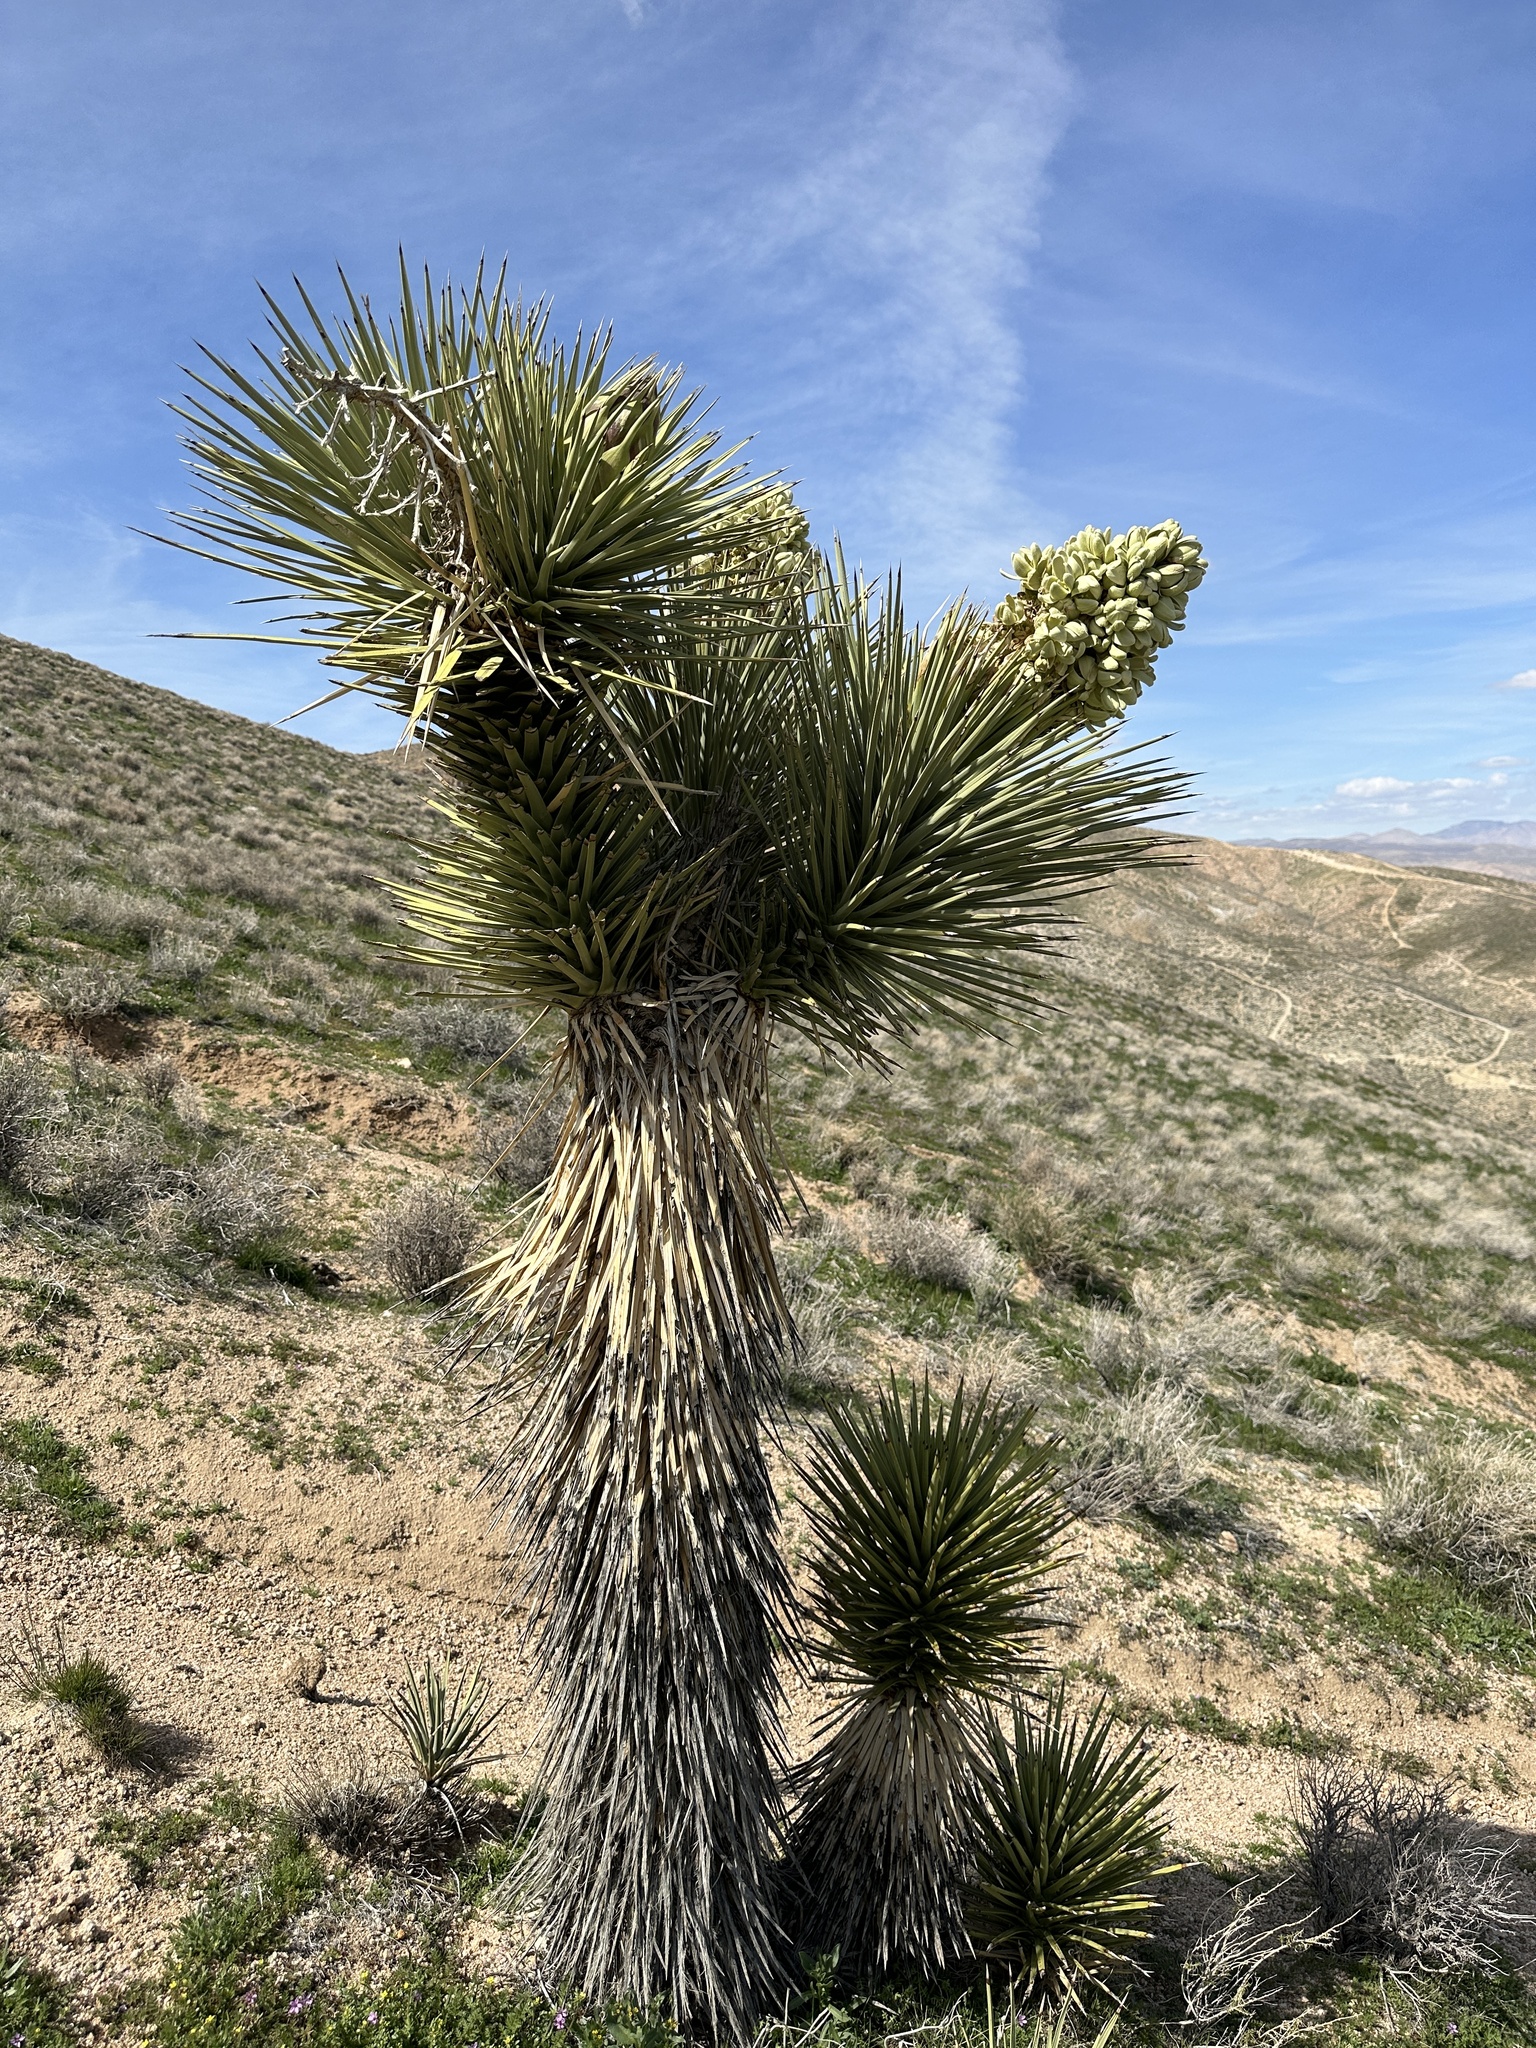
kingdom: Plantae
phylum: Tracheophyta
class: Liliopsida
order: Asparagales
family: Asparagaceae
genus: Yucca
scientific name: Yucca brevifolia
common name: Joshua tree
